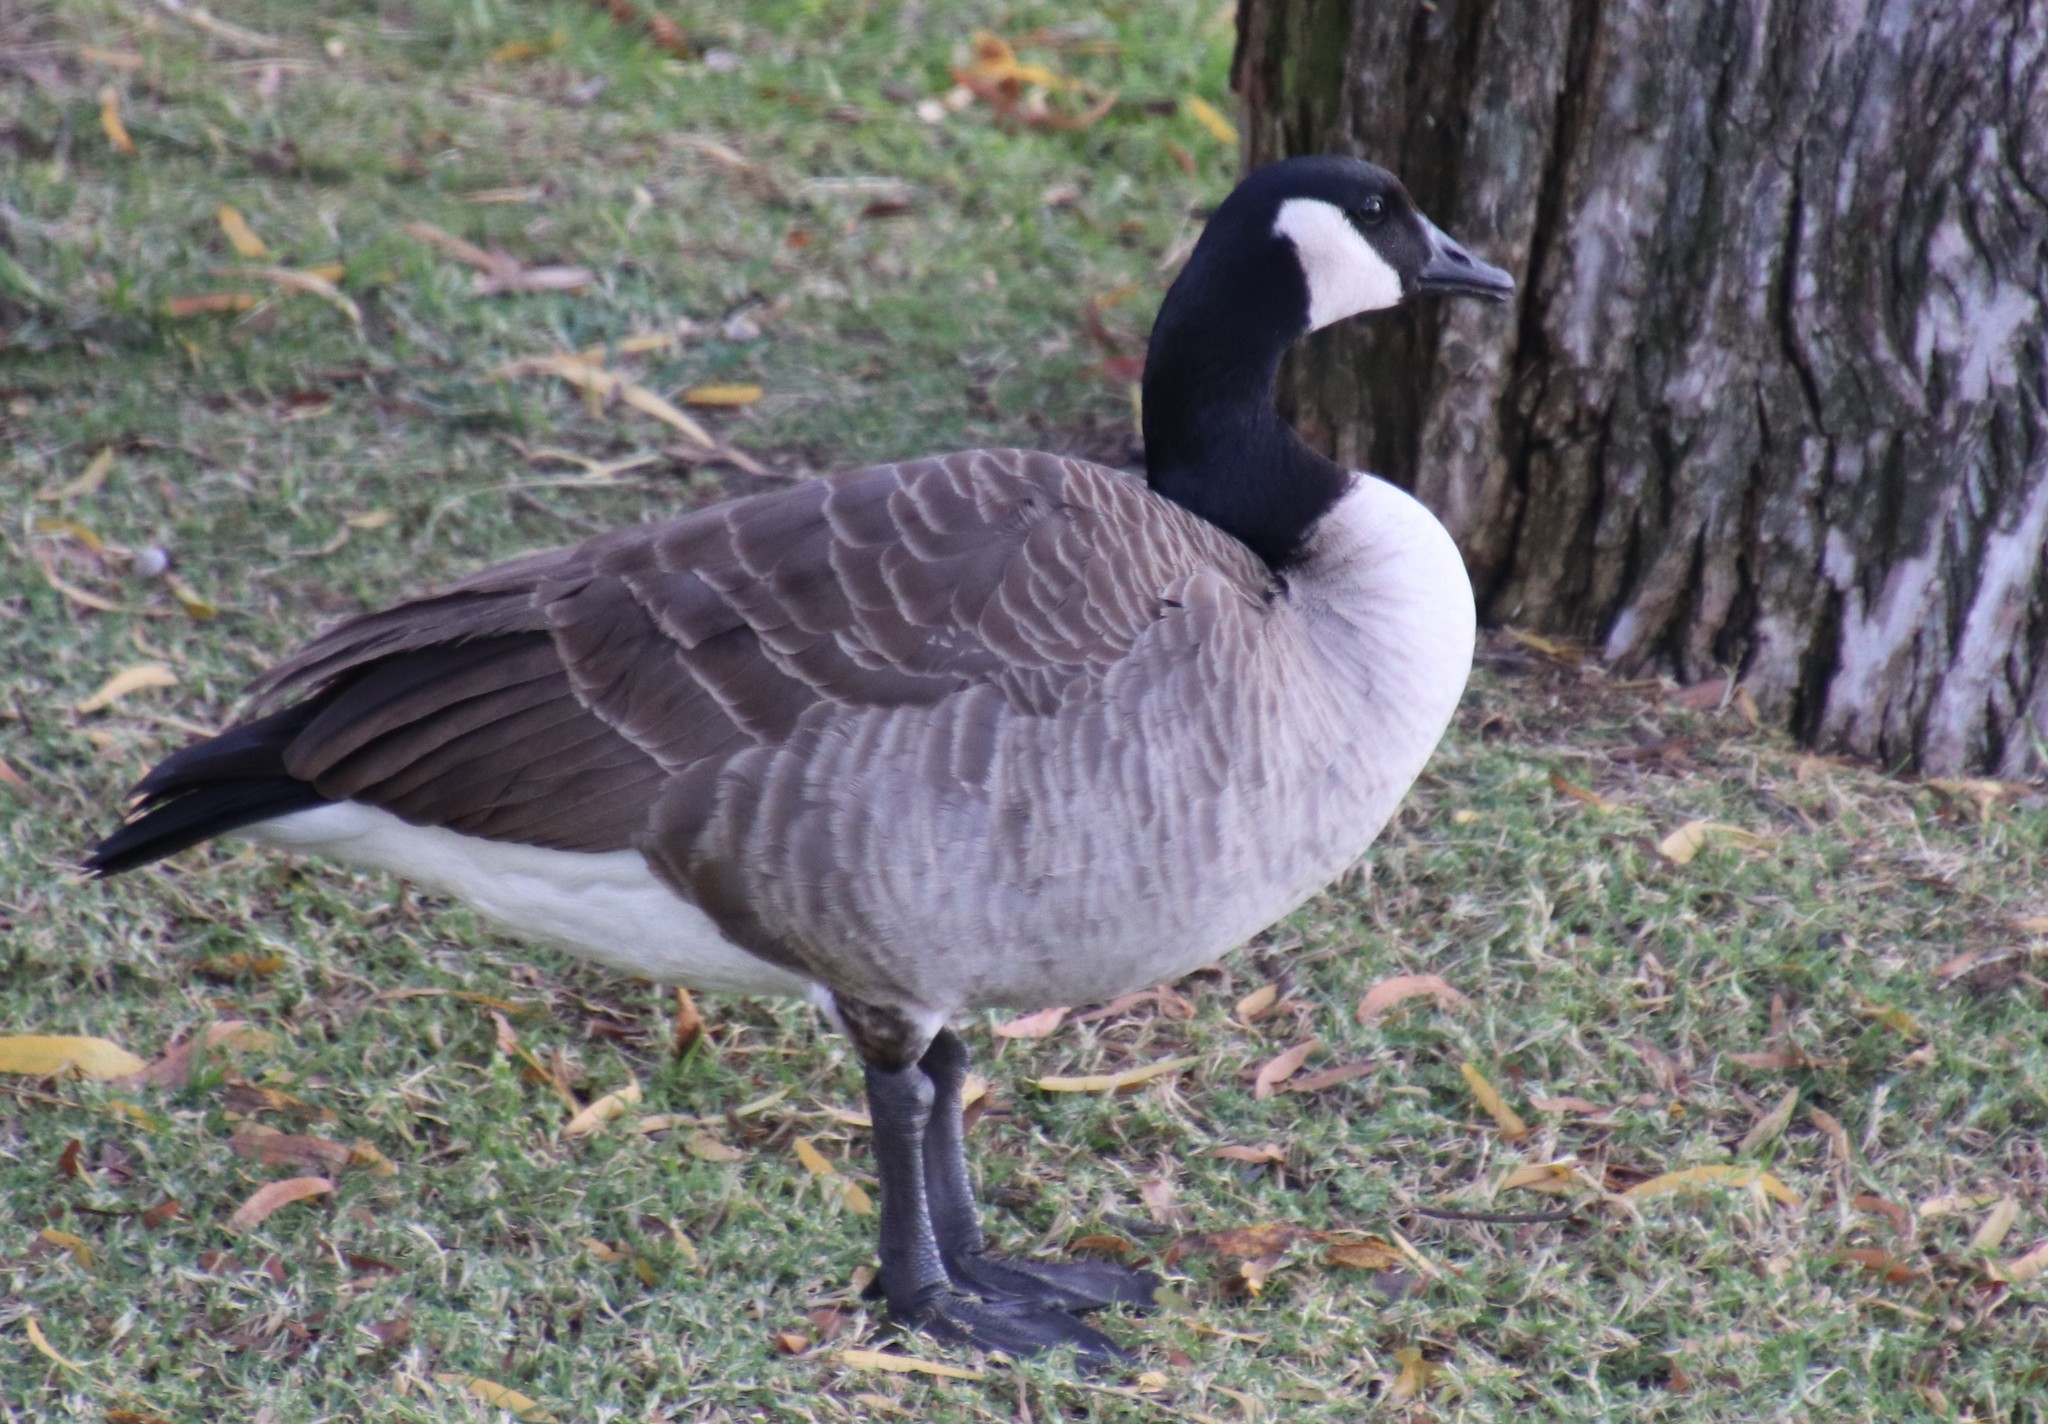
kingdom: Animalia
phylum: Chordata
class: Aves
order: Anseriformes
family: Anatidae
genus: Branta
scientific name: Branta canadensis
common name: Canada goose
